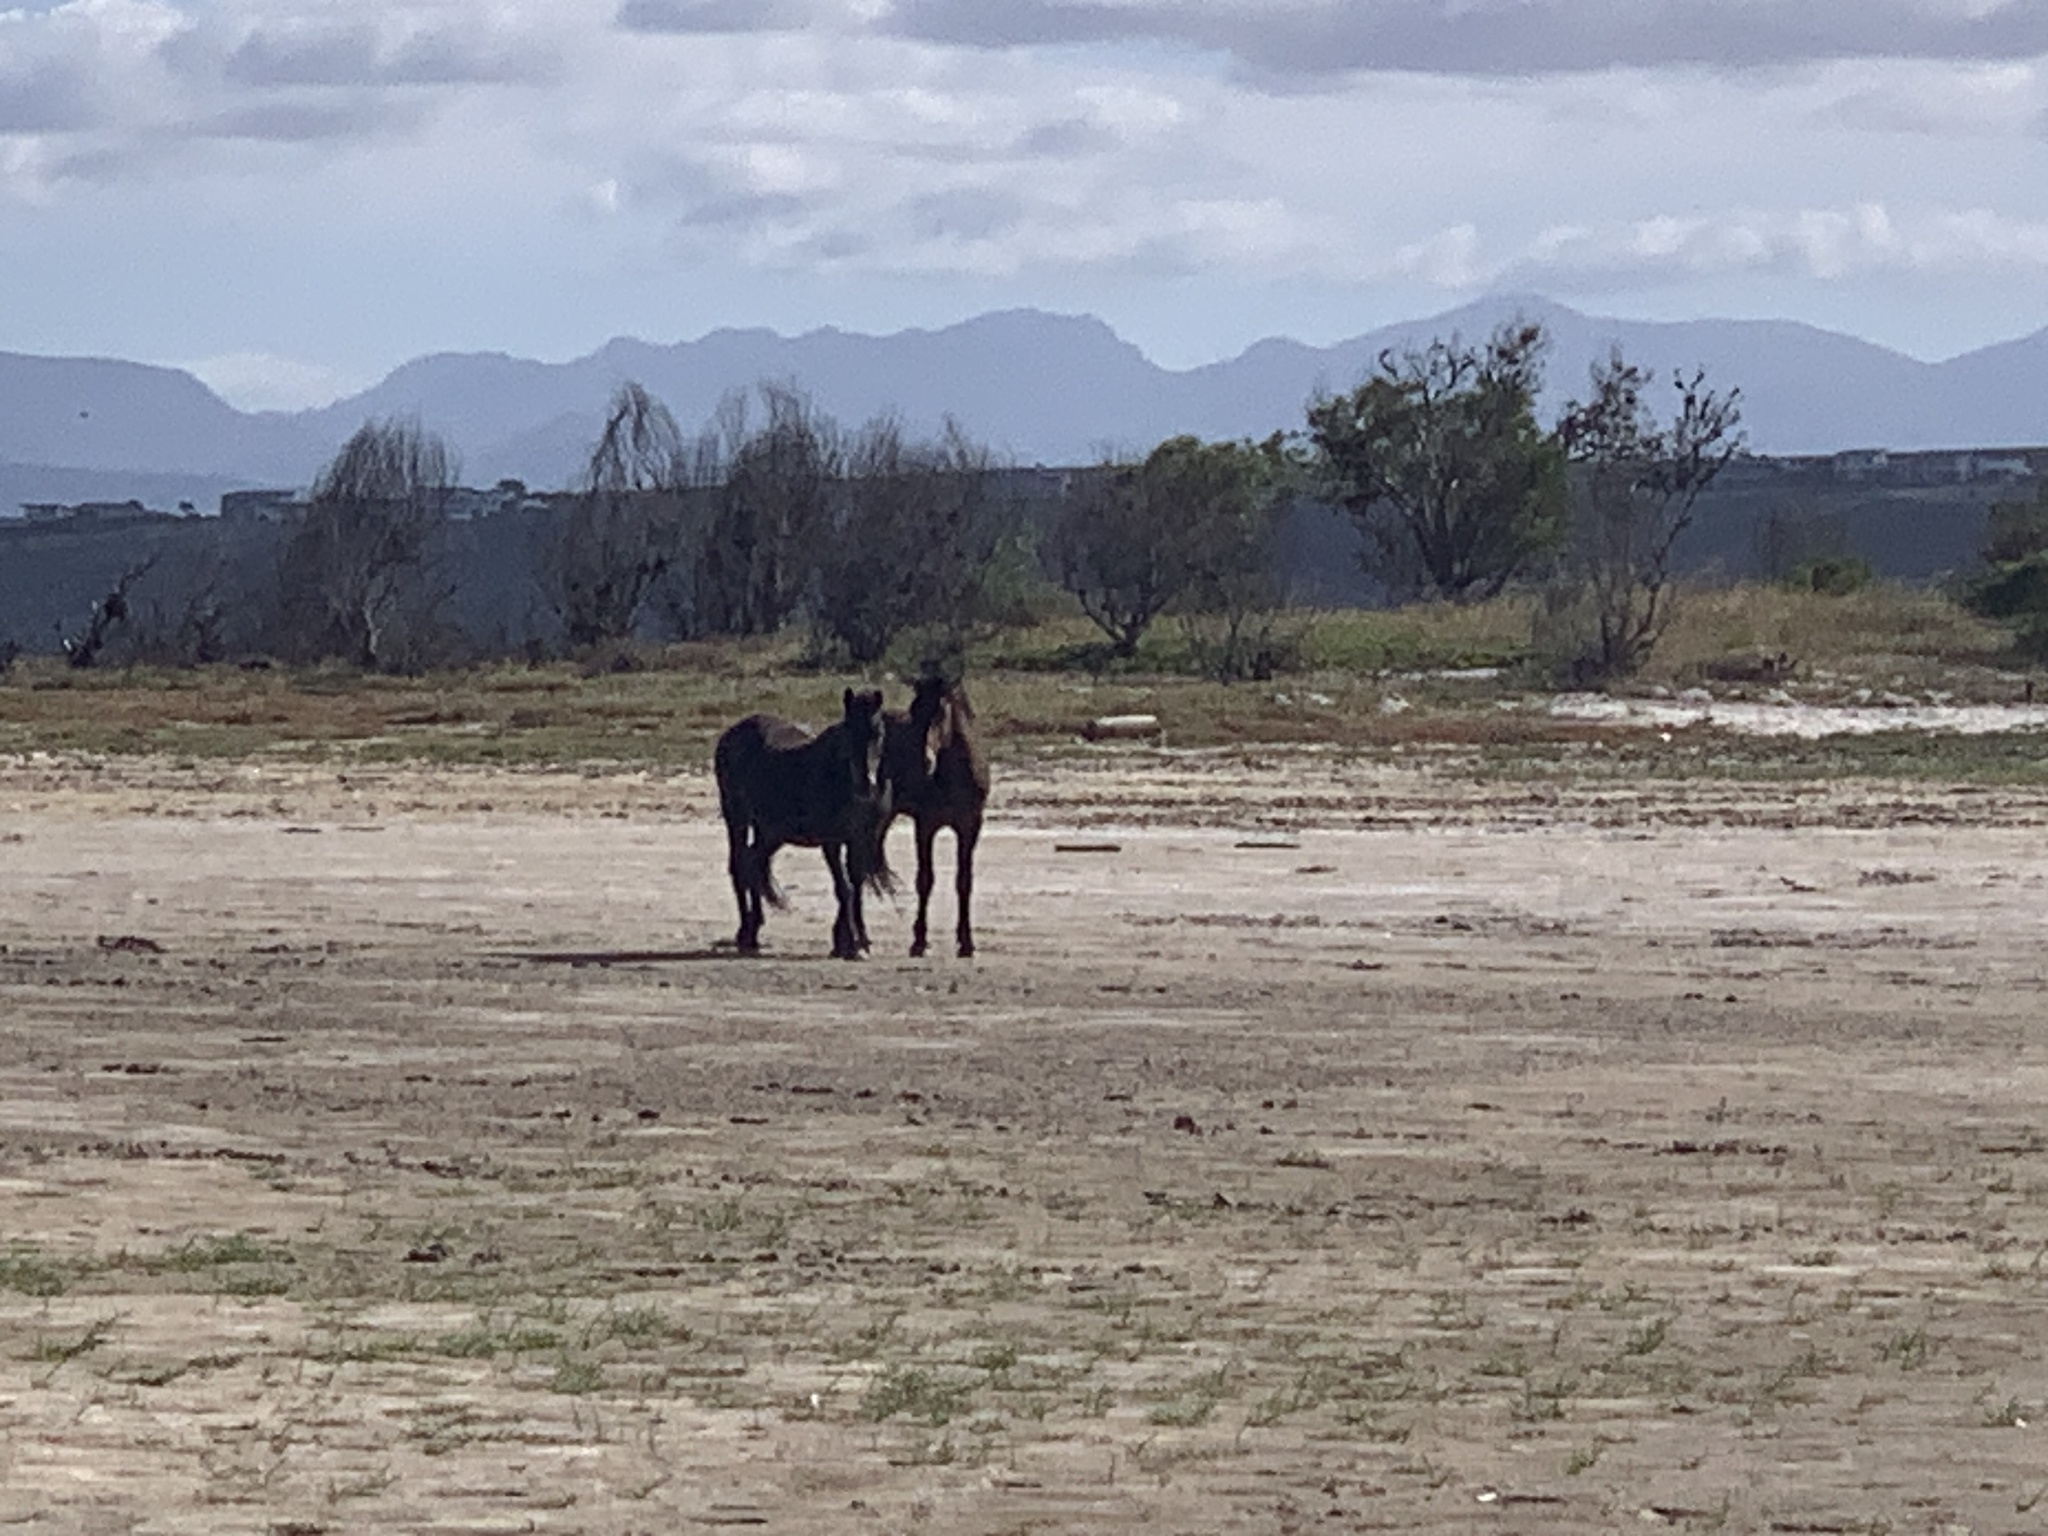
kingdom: Animalia
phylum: Chordata
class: Mammalia
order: Perissodactyla
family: Equidae
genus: Equus
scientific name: Equus caballus
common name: Horse
